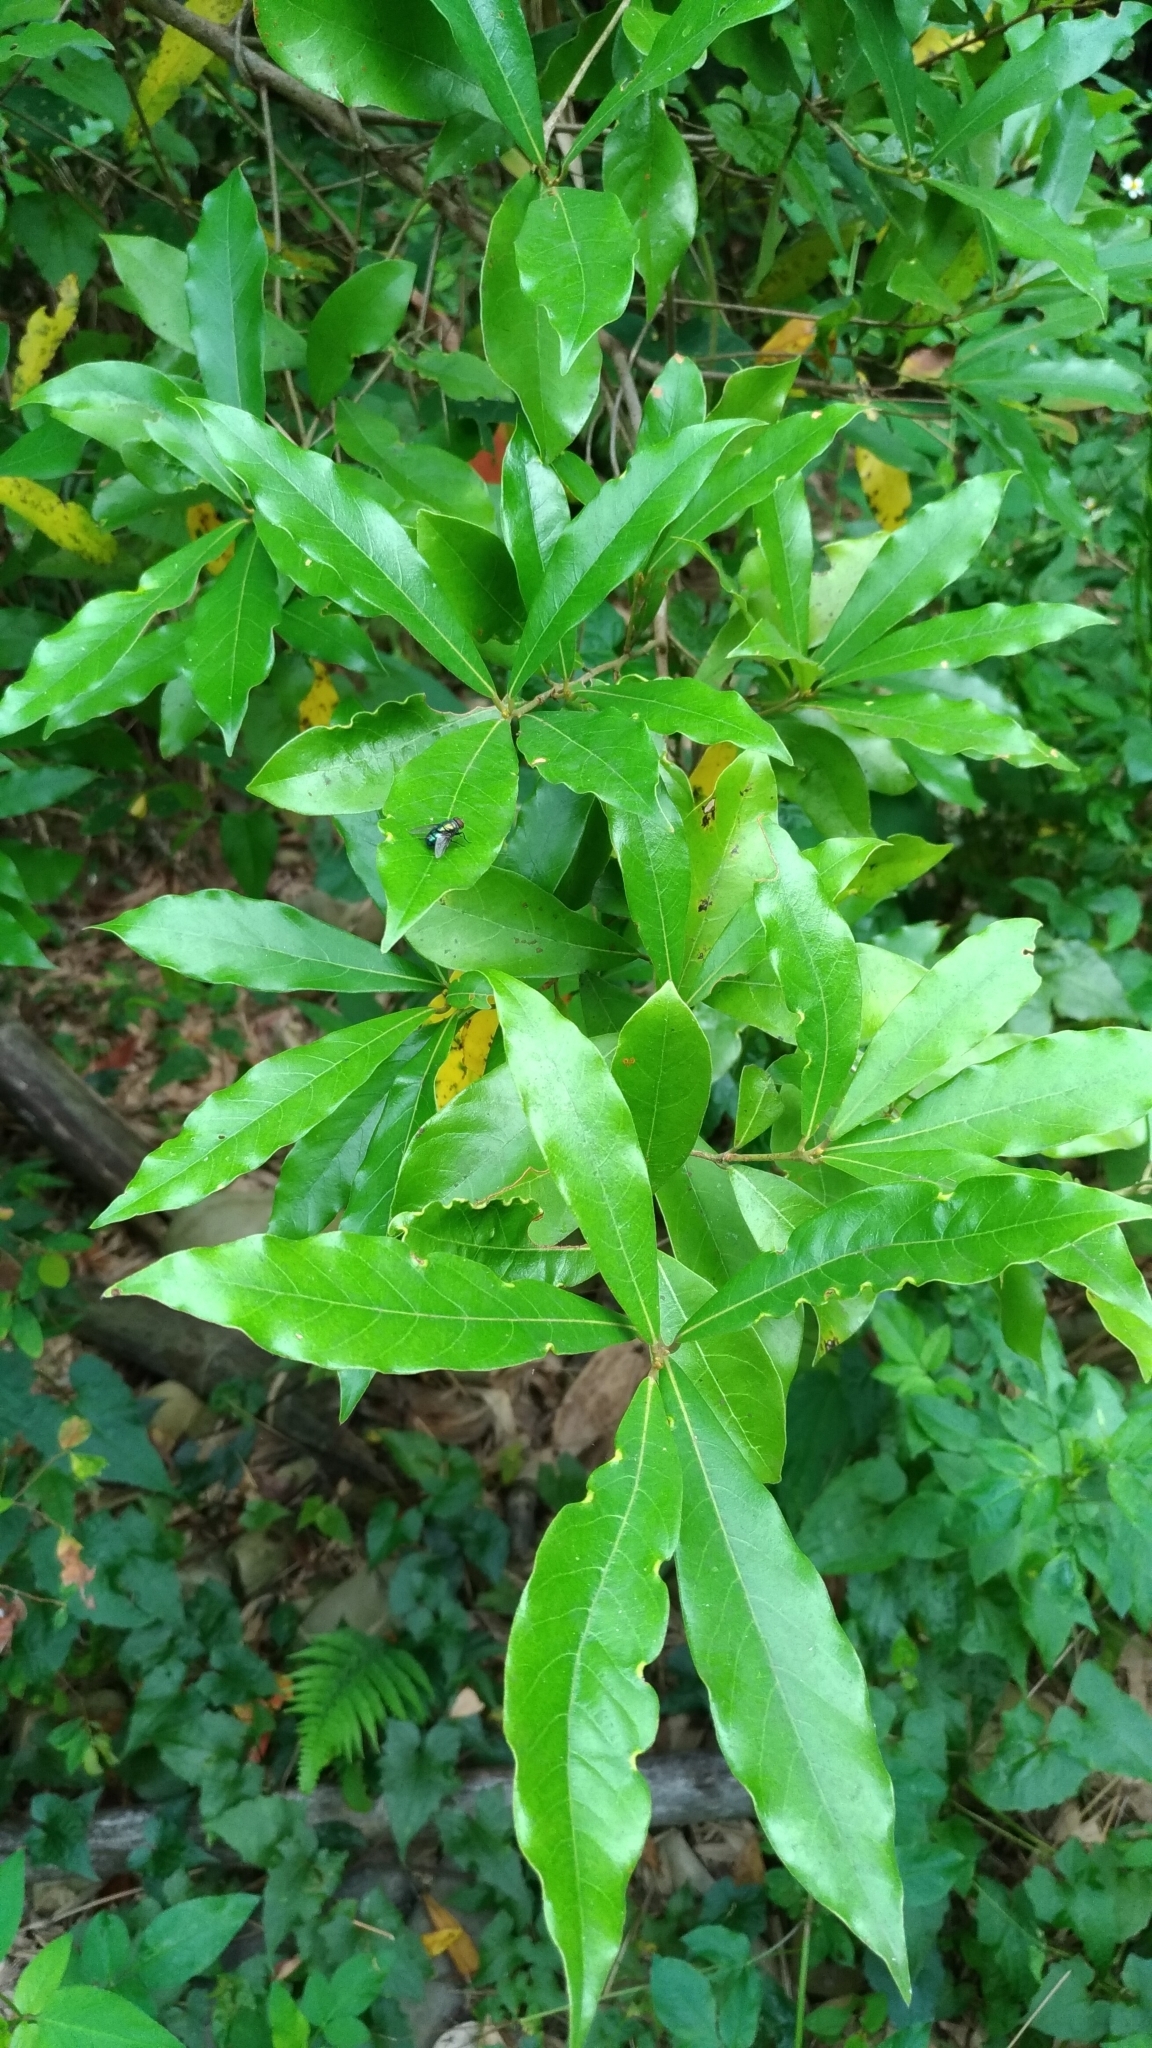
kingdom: Plantae
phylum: Tracheophyta
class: Magnoliopsida
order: Laurales
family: Lauraceae
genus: Litsea
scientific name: Litsea hypophaea
